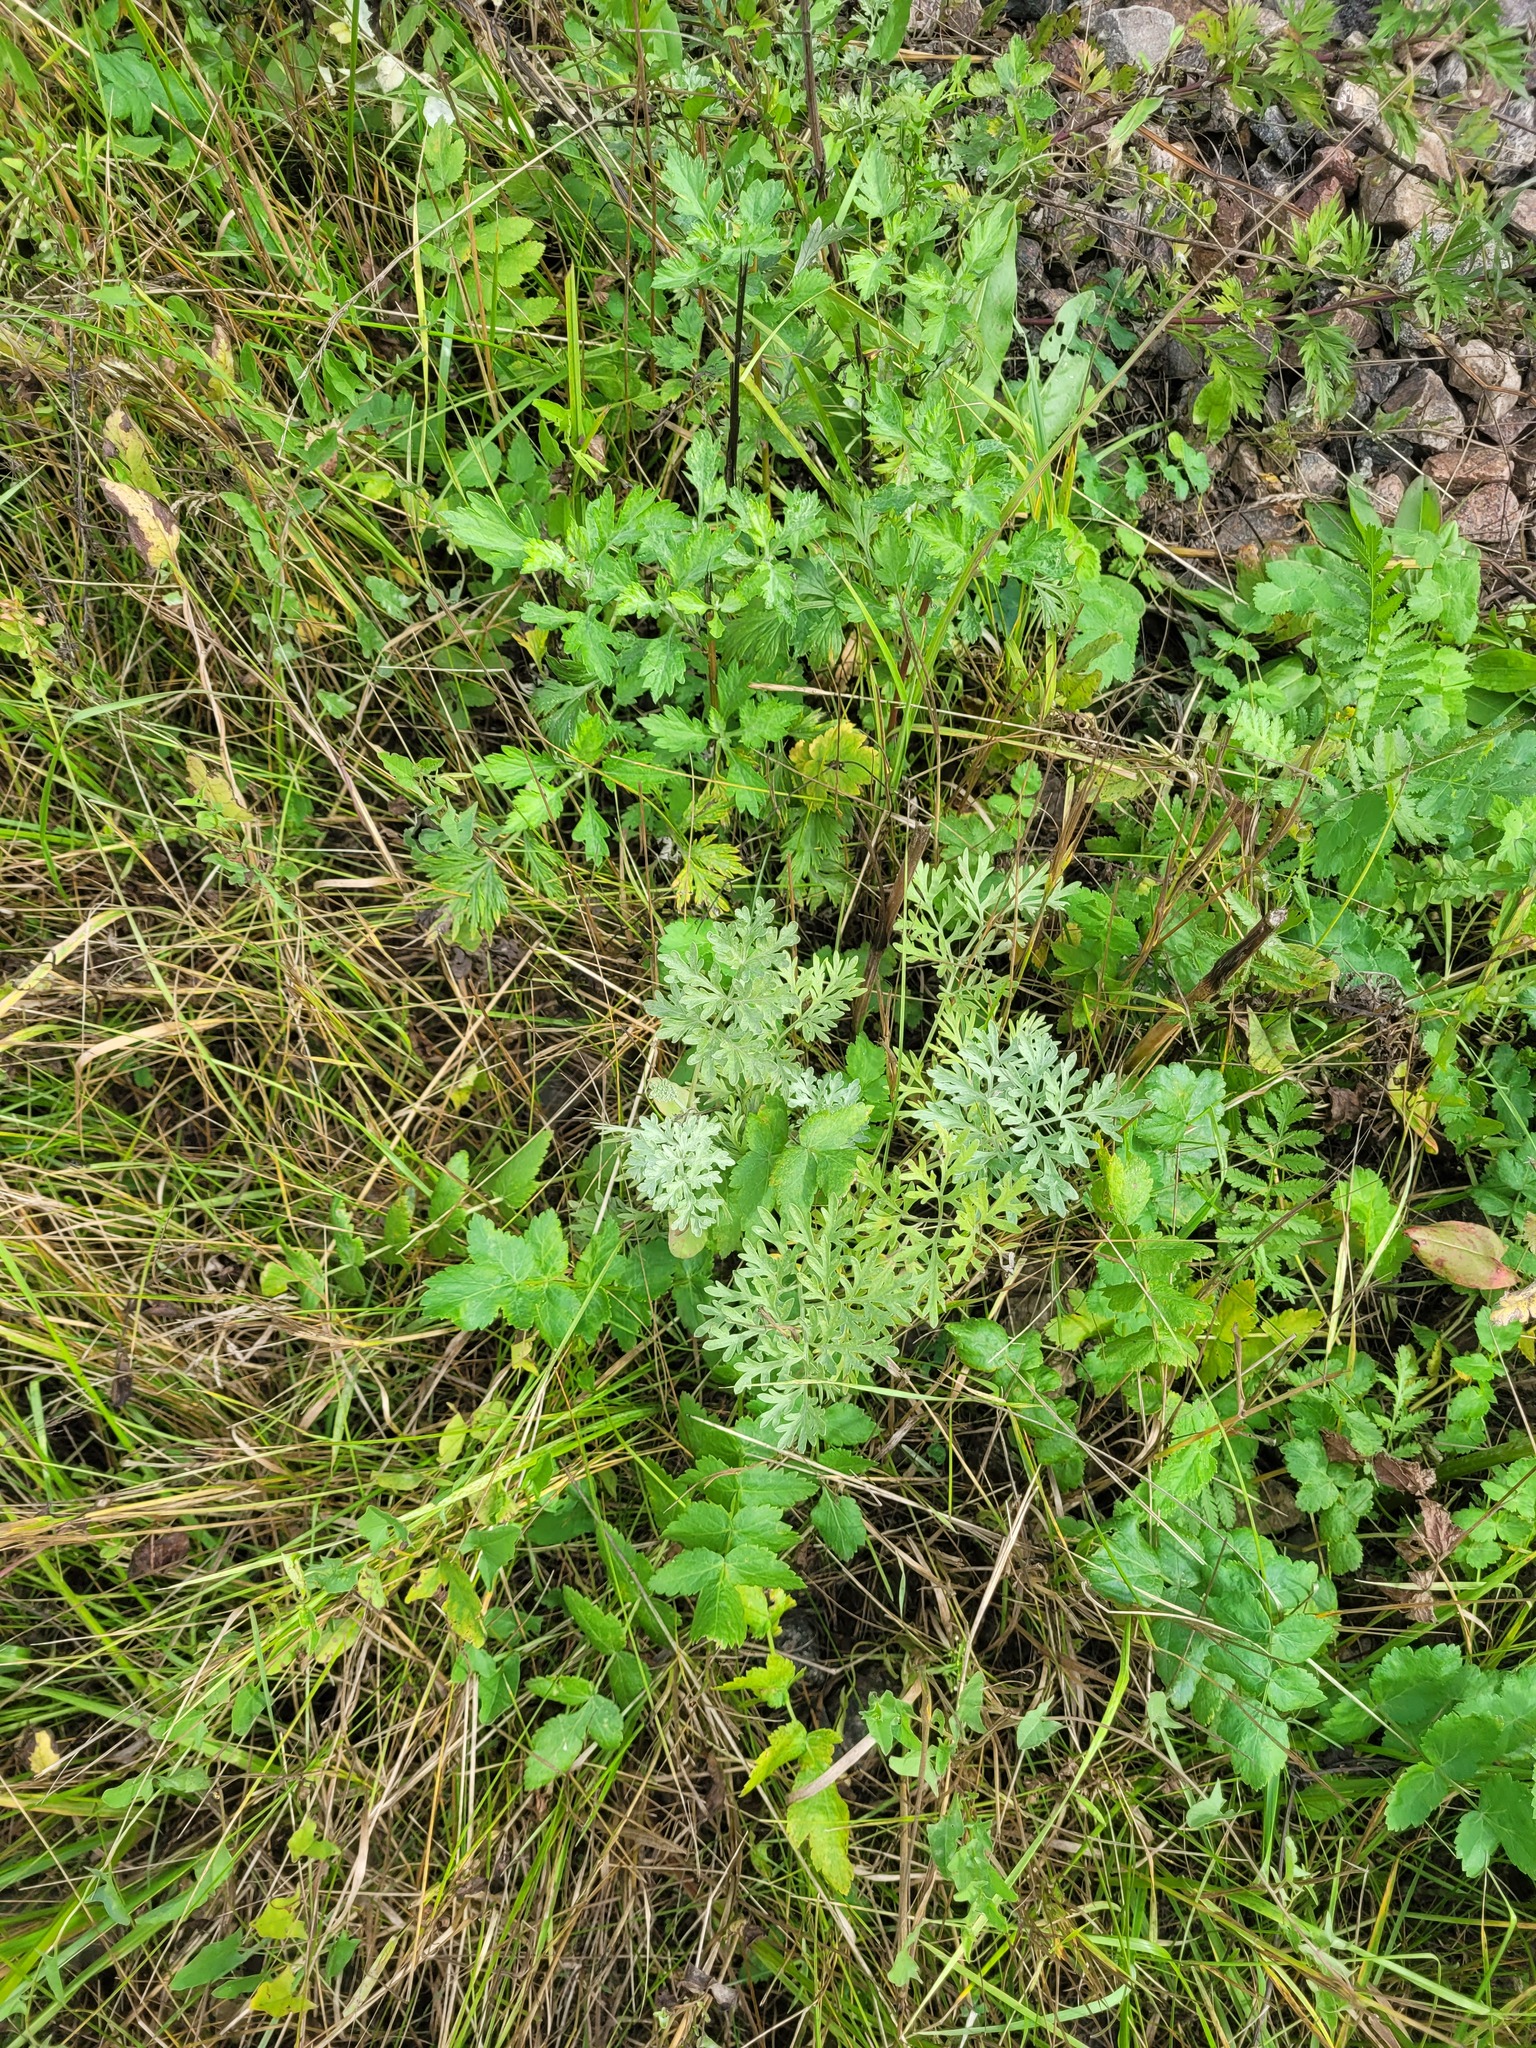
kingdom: Plantae
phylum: Tracheophyta
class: Magnoliopsida
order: Asterales
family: Asteraceae
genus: Artemisia
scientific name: Artemisia absinthium
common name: Wormwood
